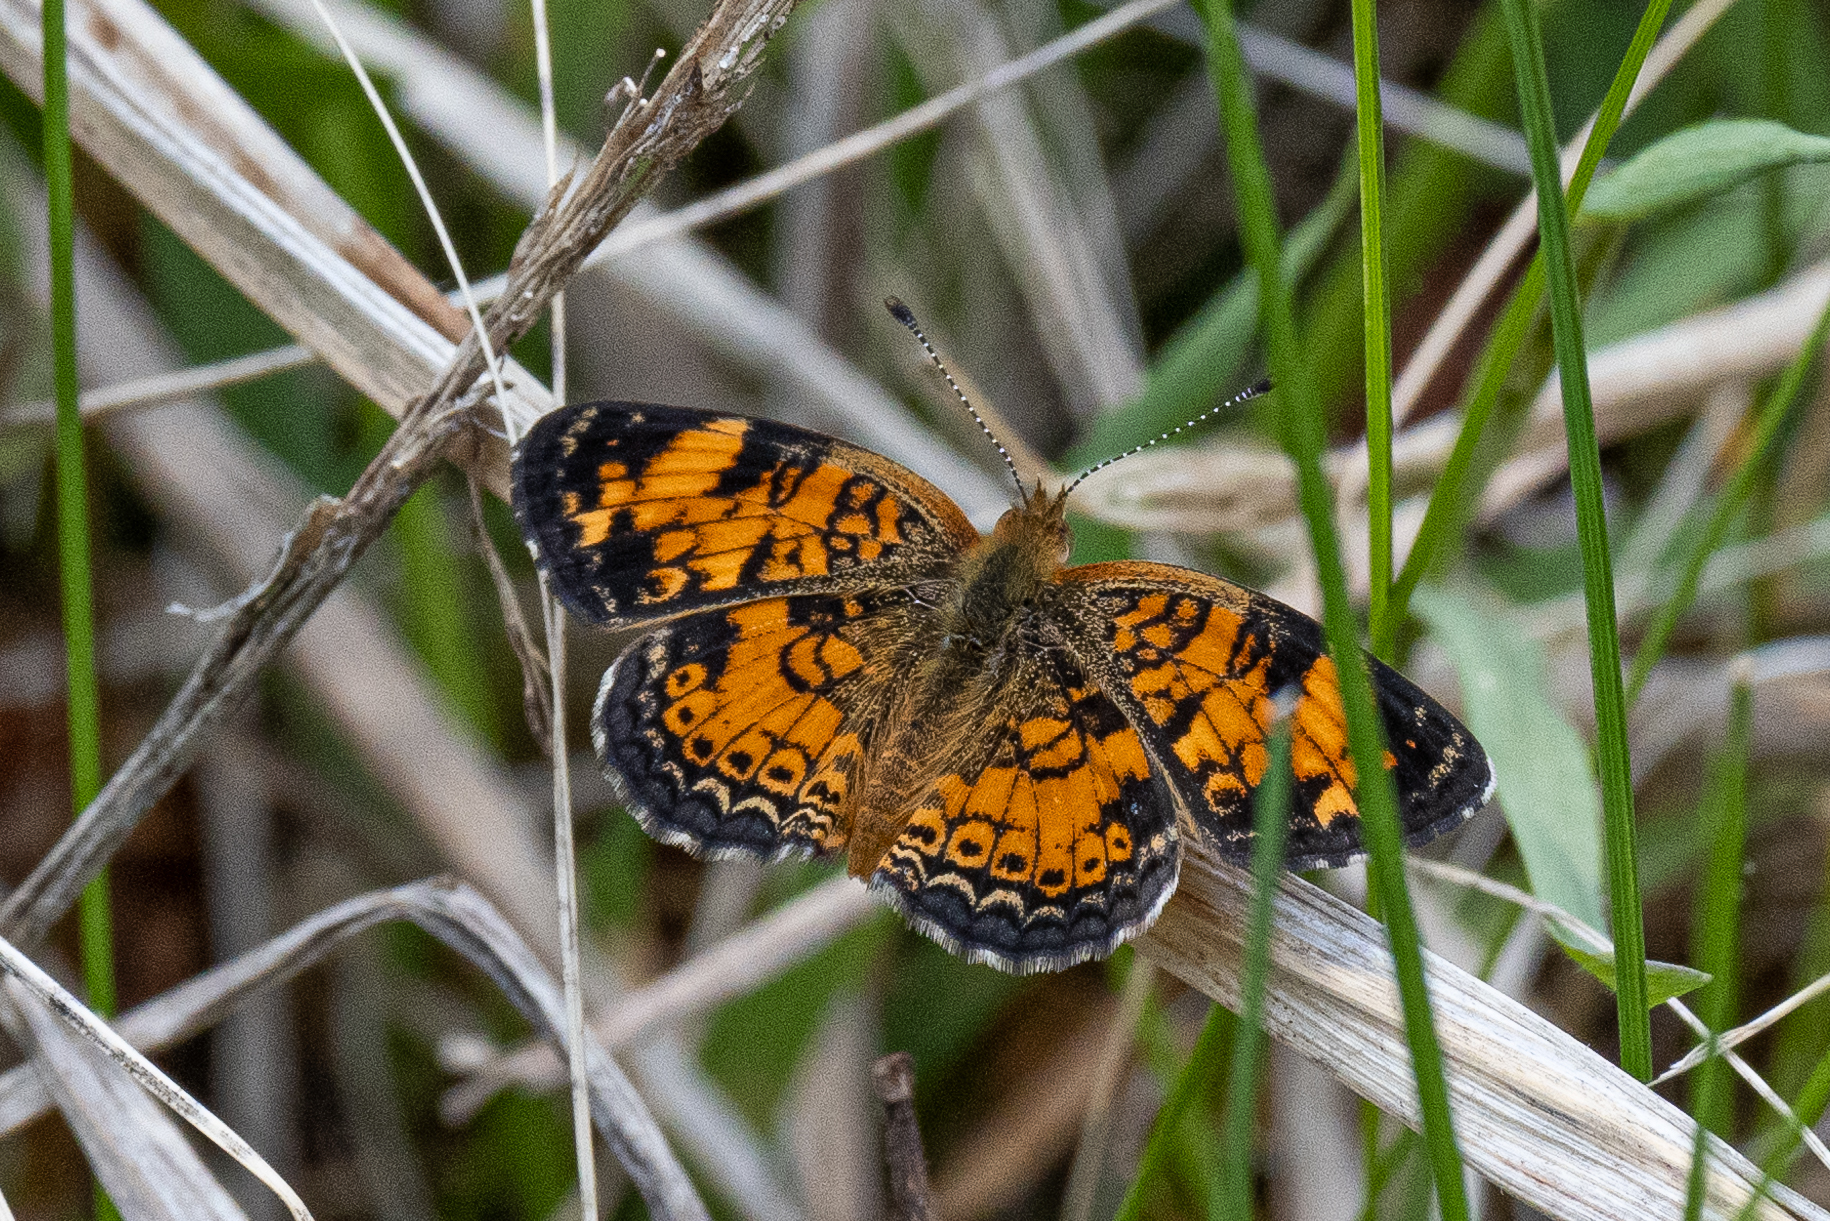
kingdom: Animalia
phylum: Arthropoda
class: Insecta
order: Lepidoptera
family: Nymphalidae
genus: Phyciodes
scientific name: Phyciodes tharos
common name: Pearl crescent
